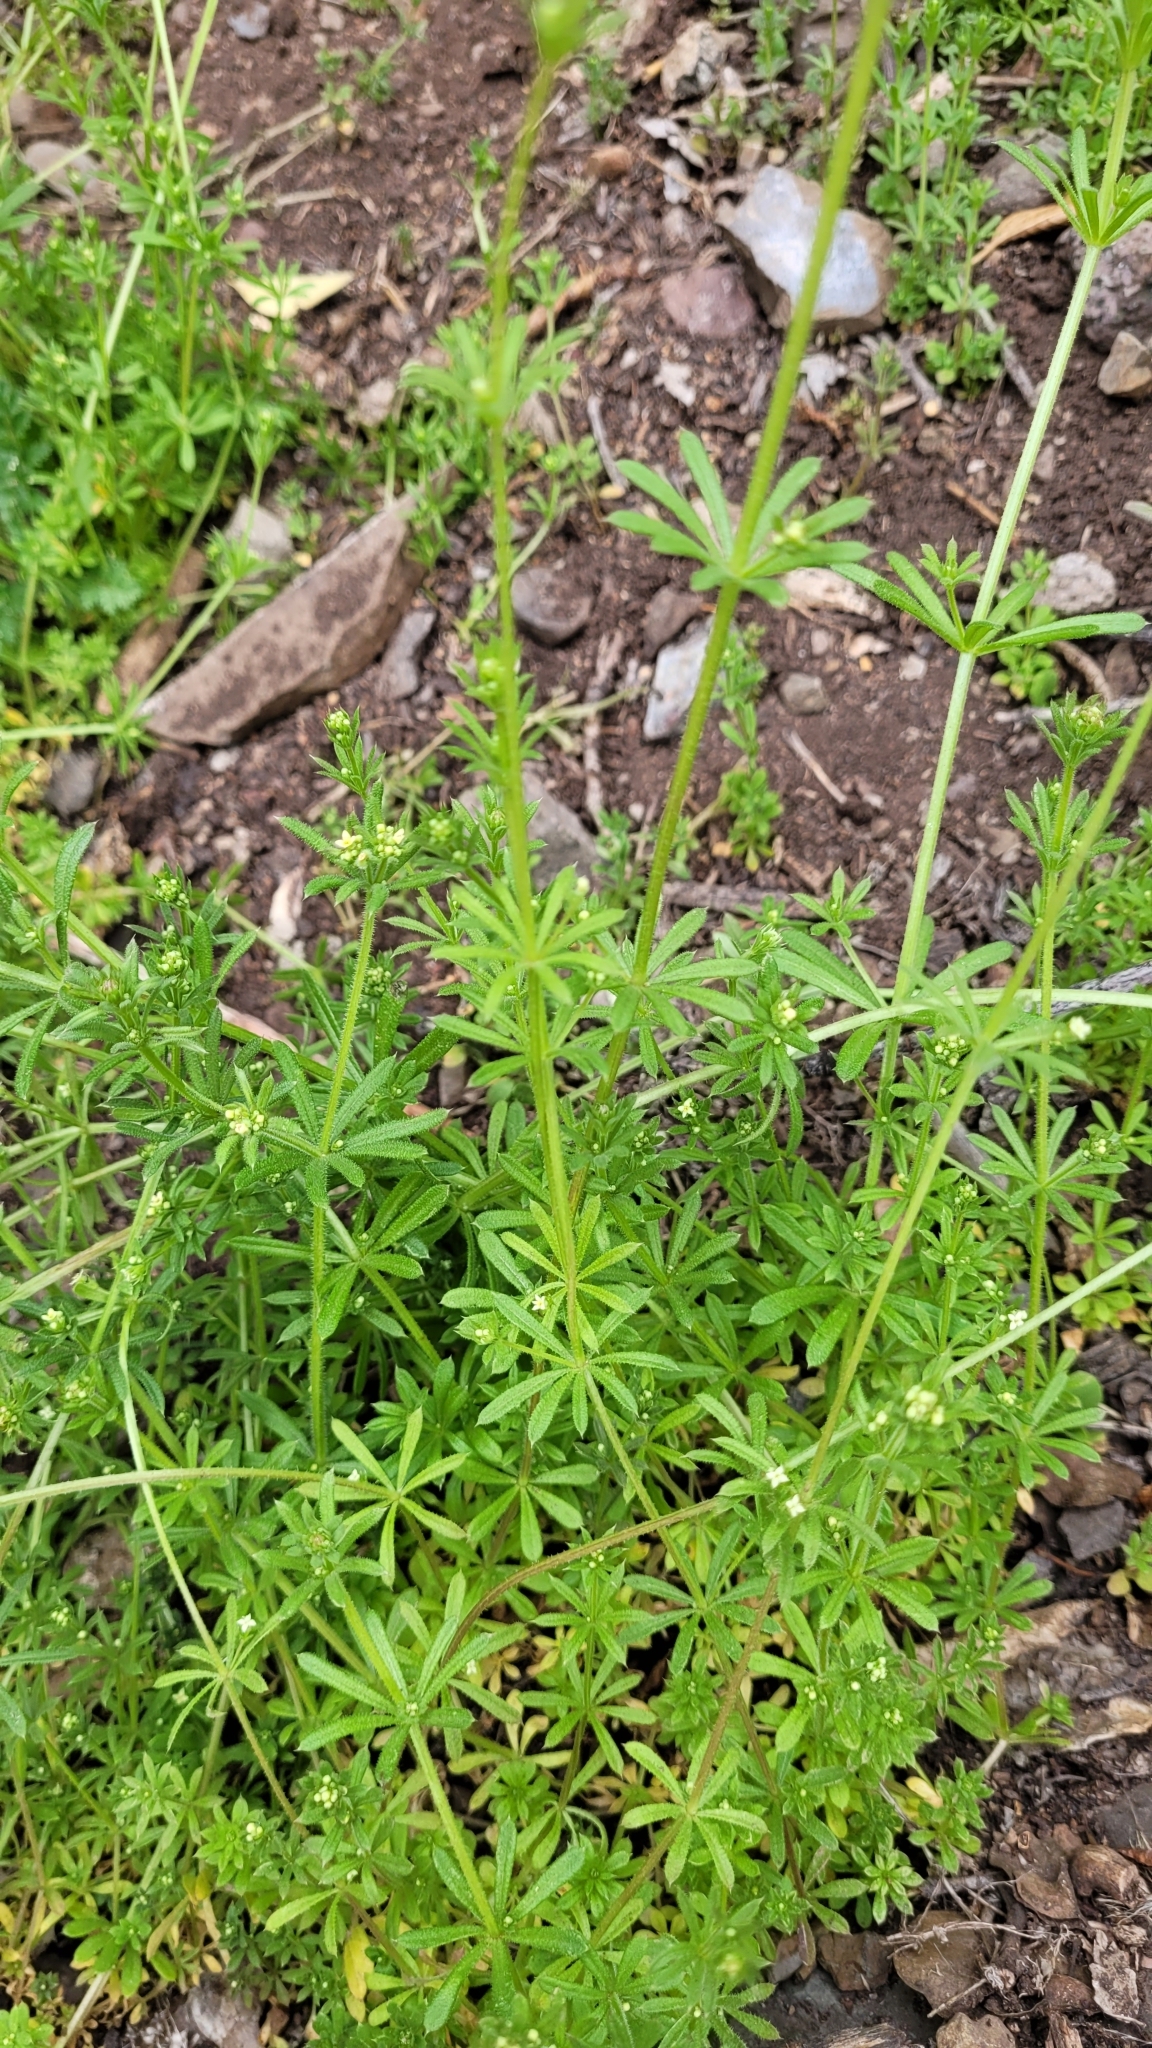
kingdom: Plantae
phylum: Tracheophyta
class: Magnoliopsida
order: Gentianales
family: Rubiaceae
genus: Galium
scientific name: Galium aparine
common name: Cleavers
